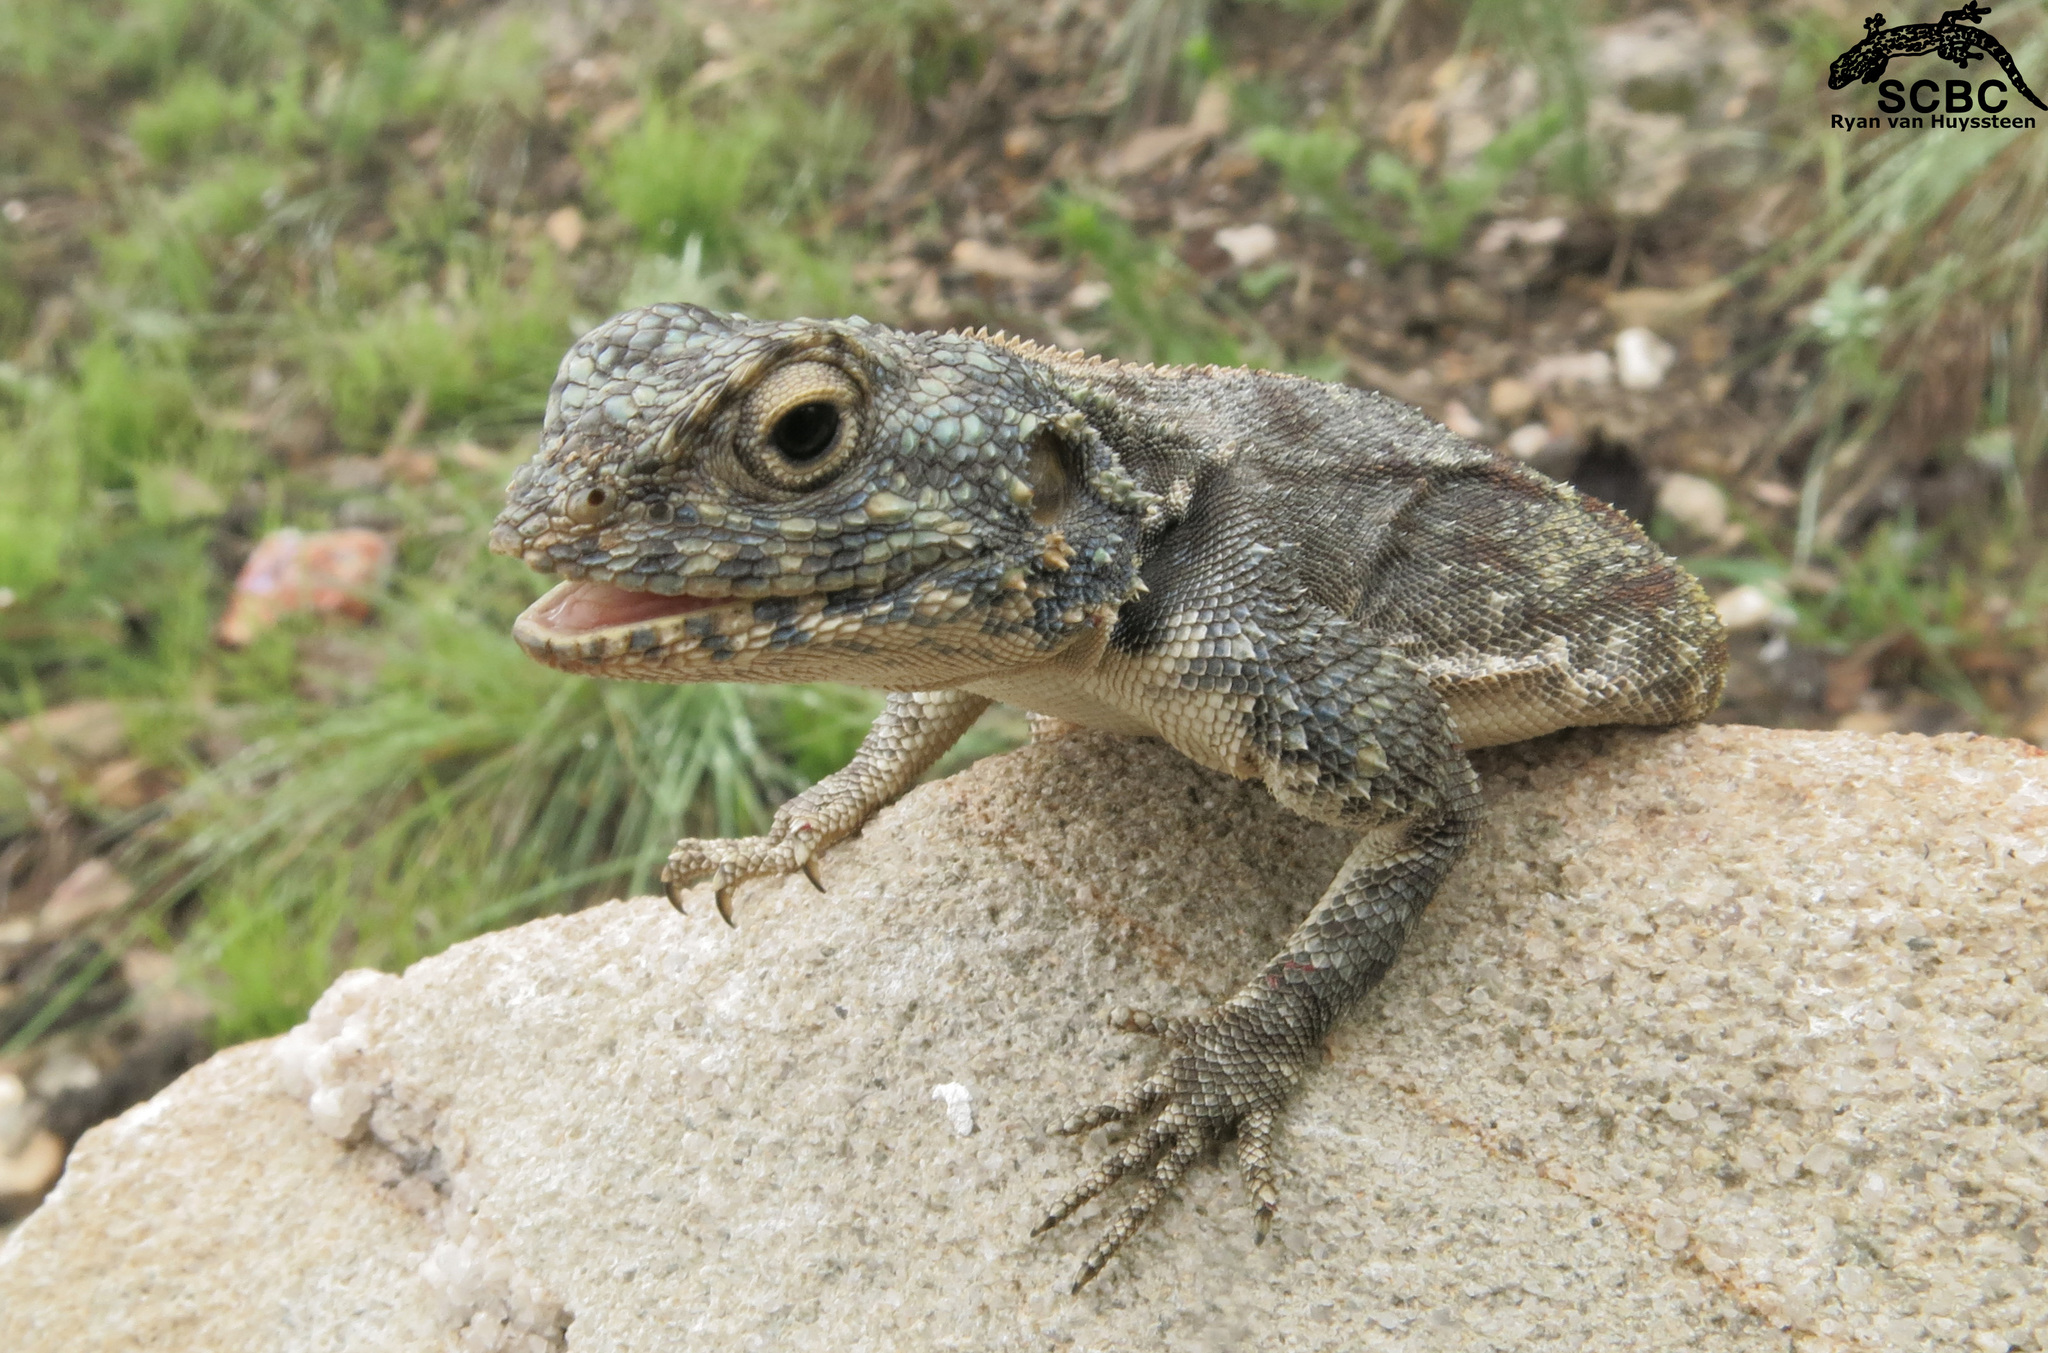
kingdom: Animalia
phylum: Chordata
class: Squamata
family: Agamidae
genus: Agama
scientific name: Agama atra
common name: Southern african rock agama
